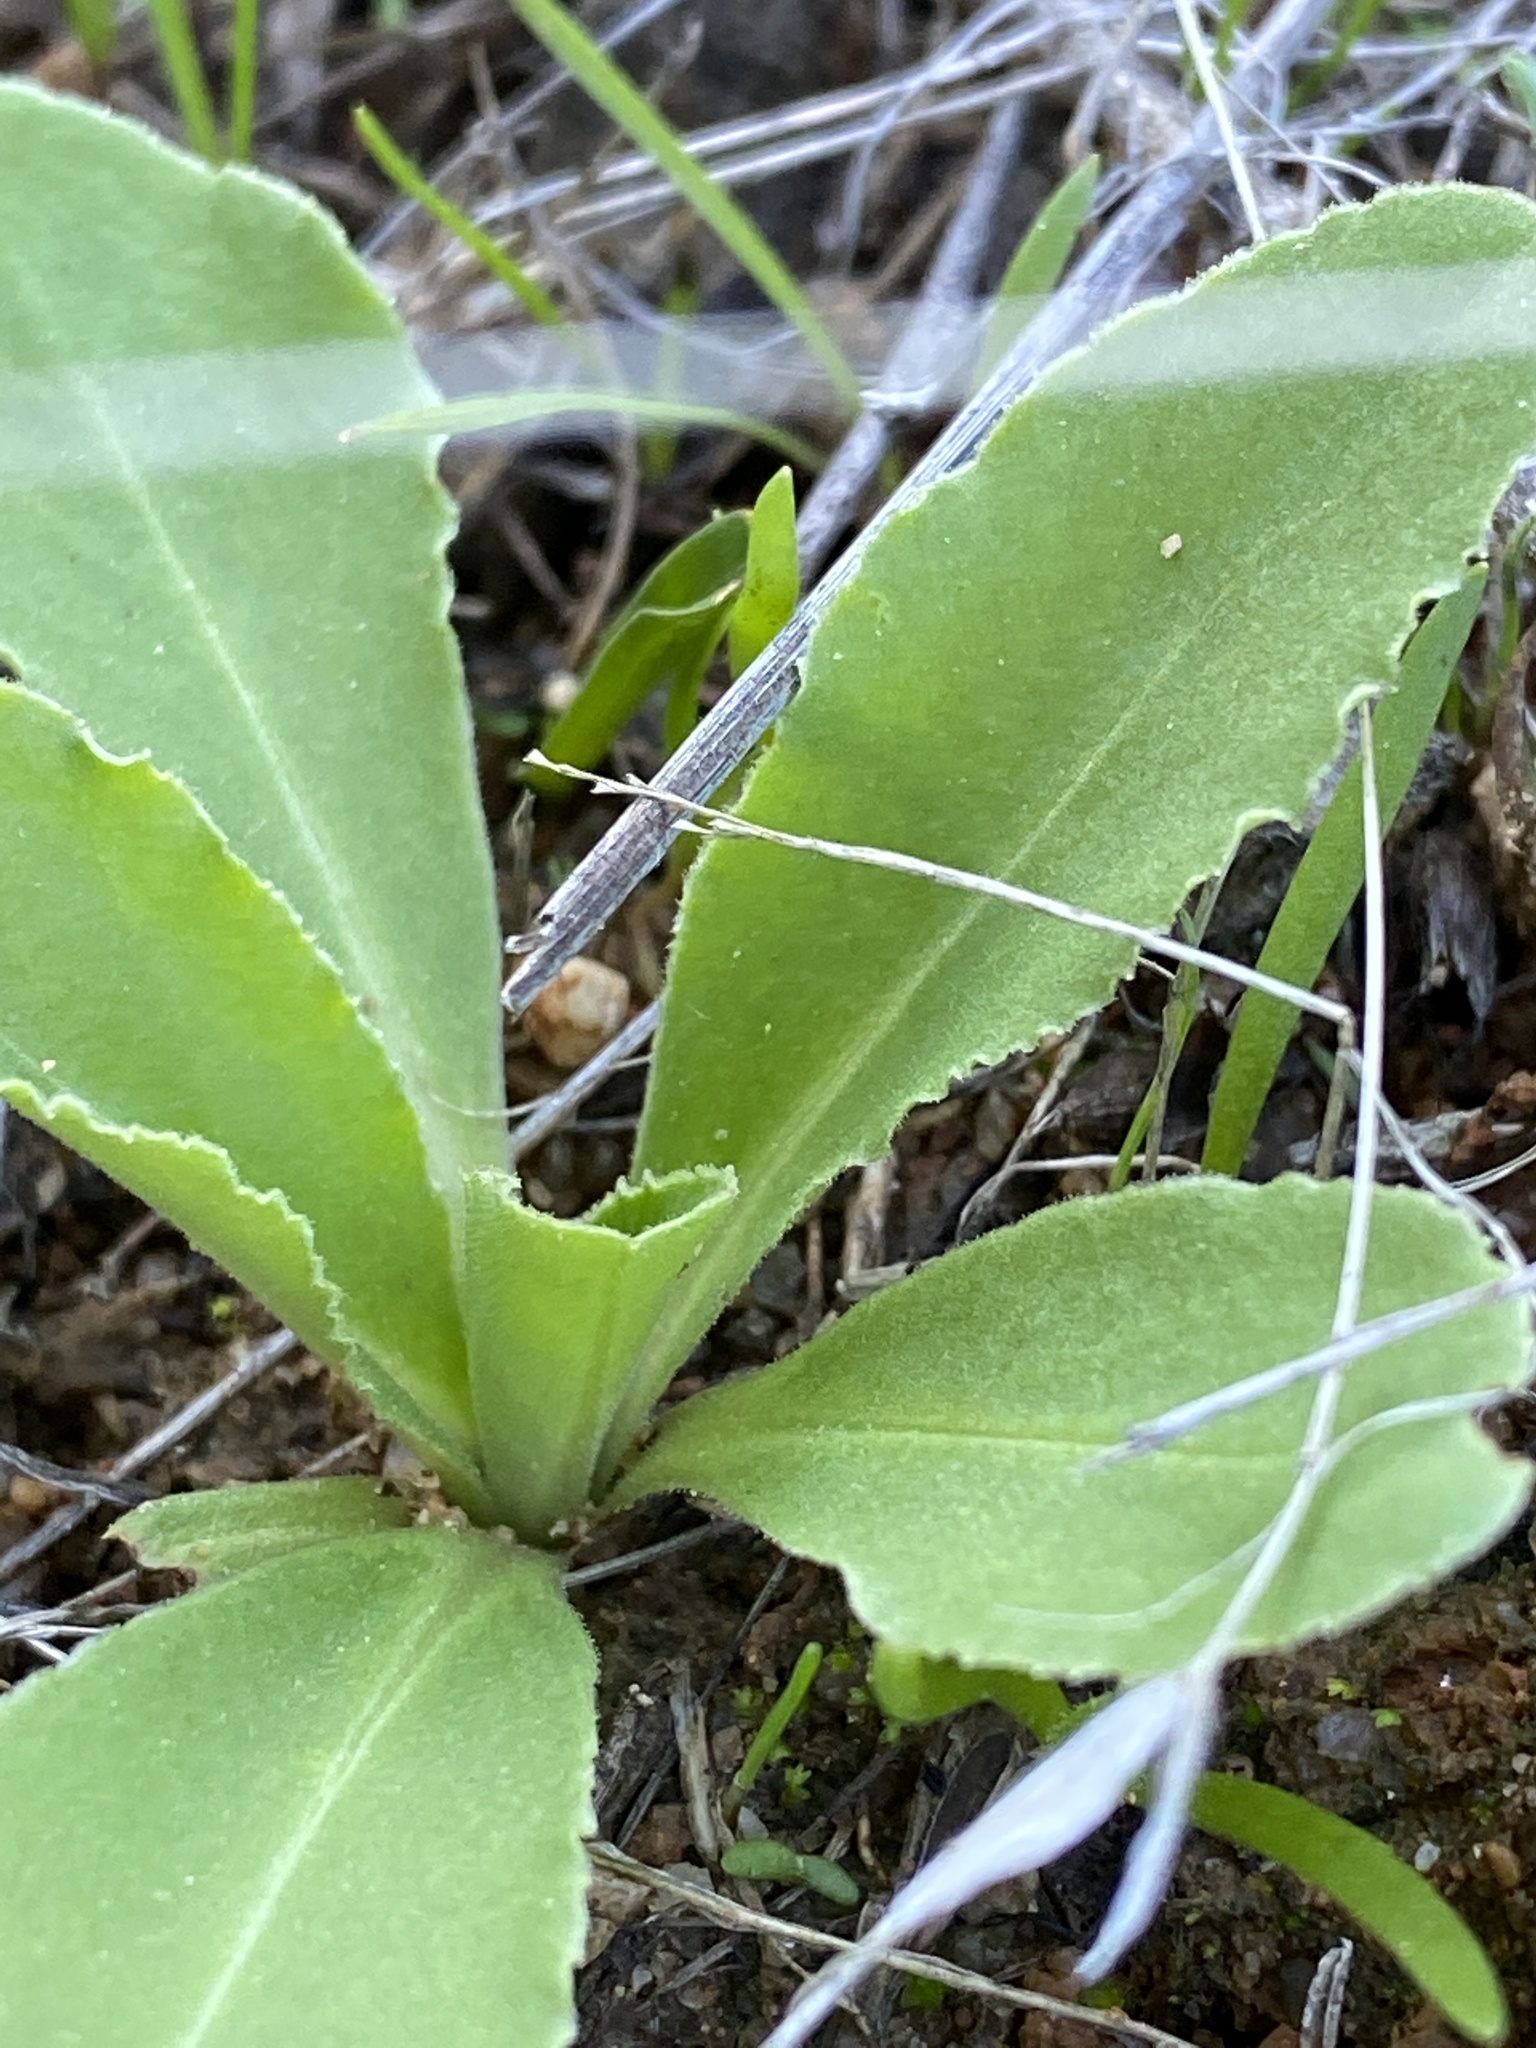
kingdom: Plantae
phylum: Tracheophyta
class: Magnoliopsida
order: Ericales
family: Primulaceae
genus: Dodecatheon
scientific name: Dodecatheon clevelandii
